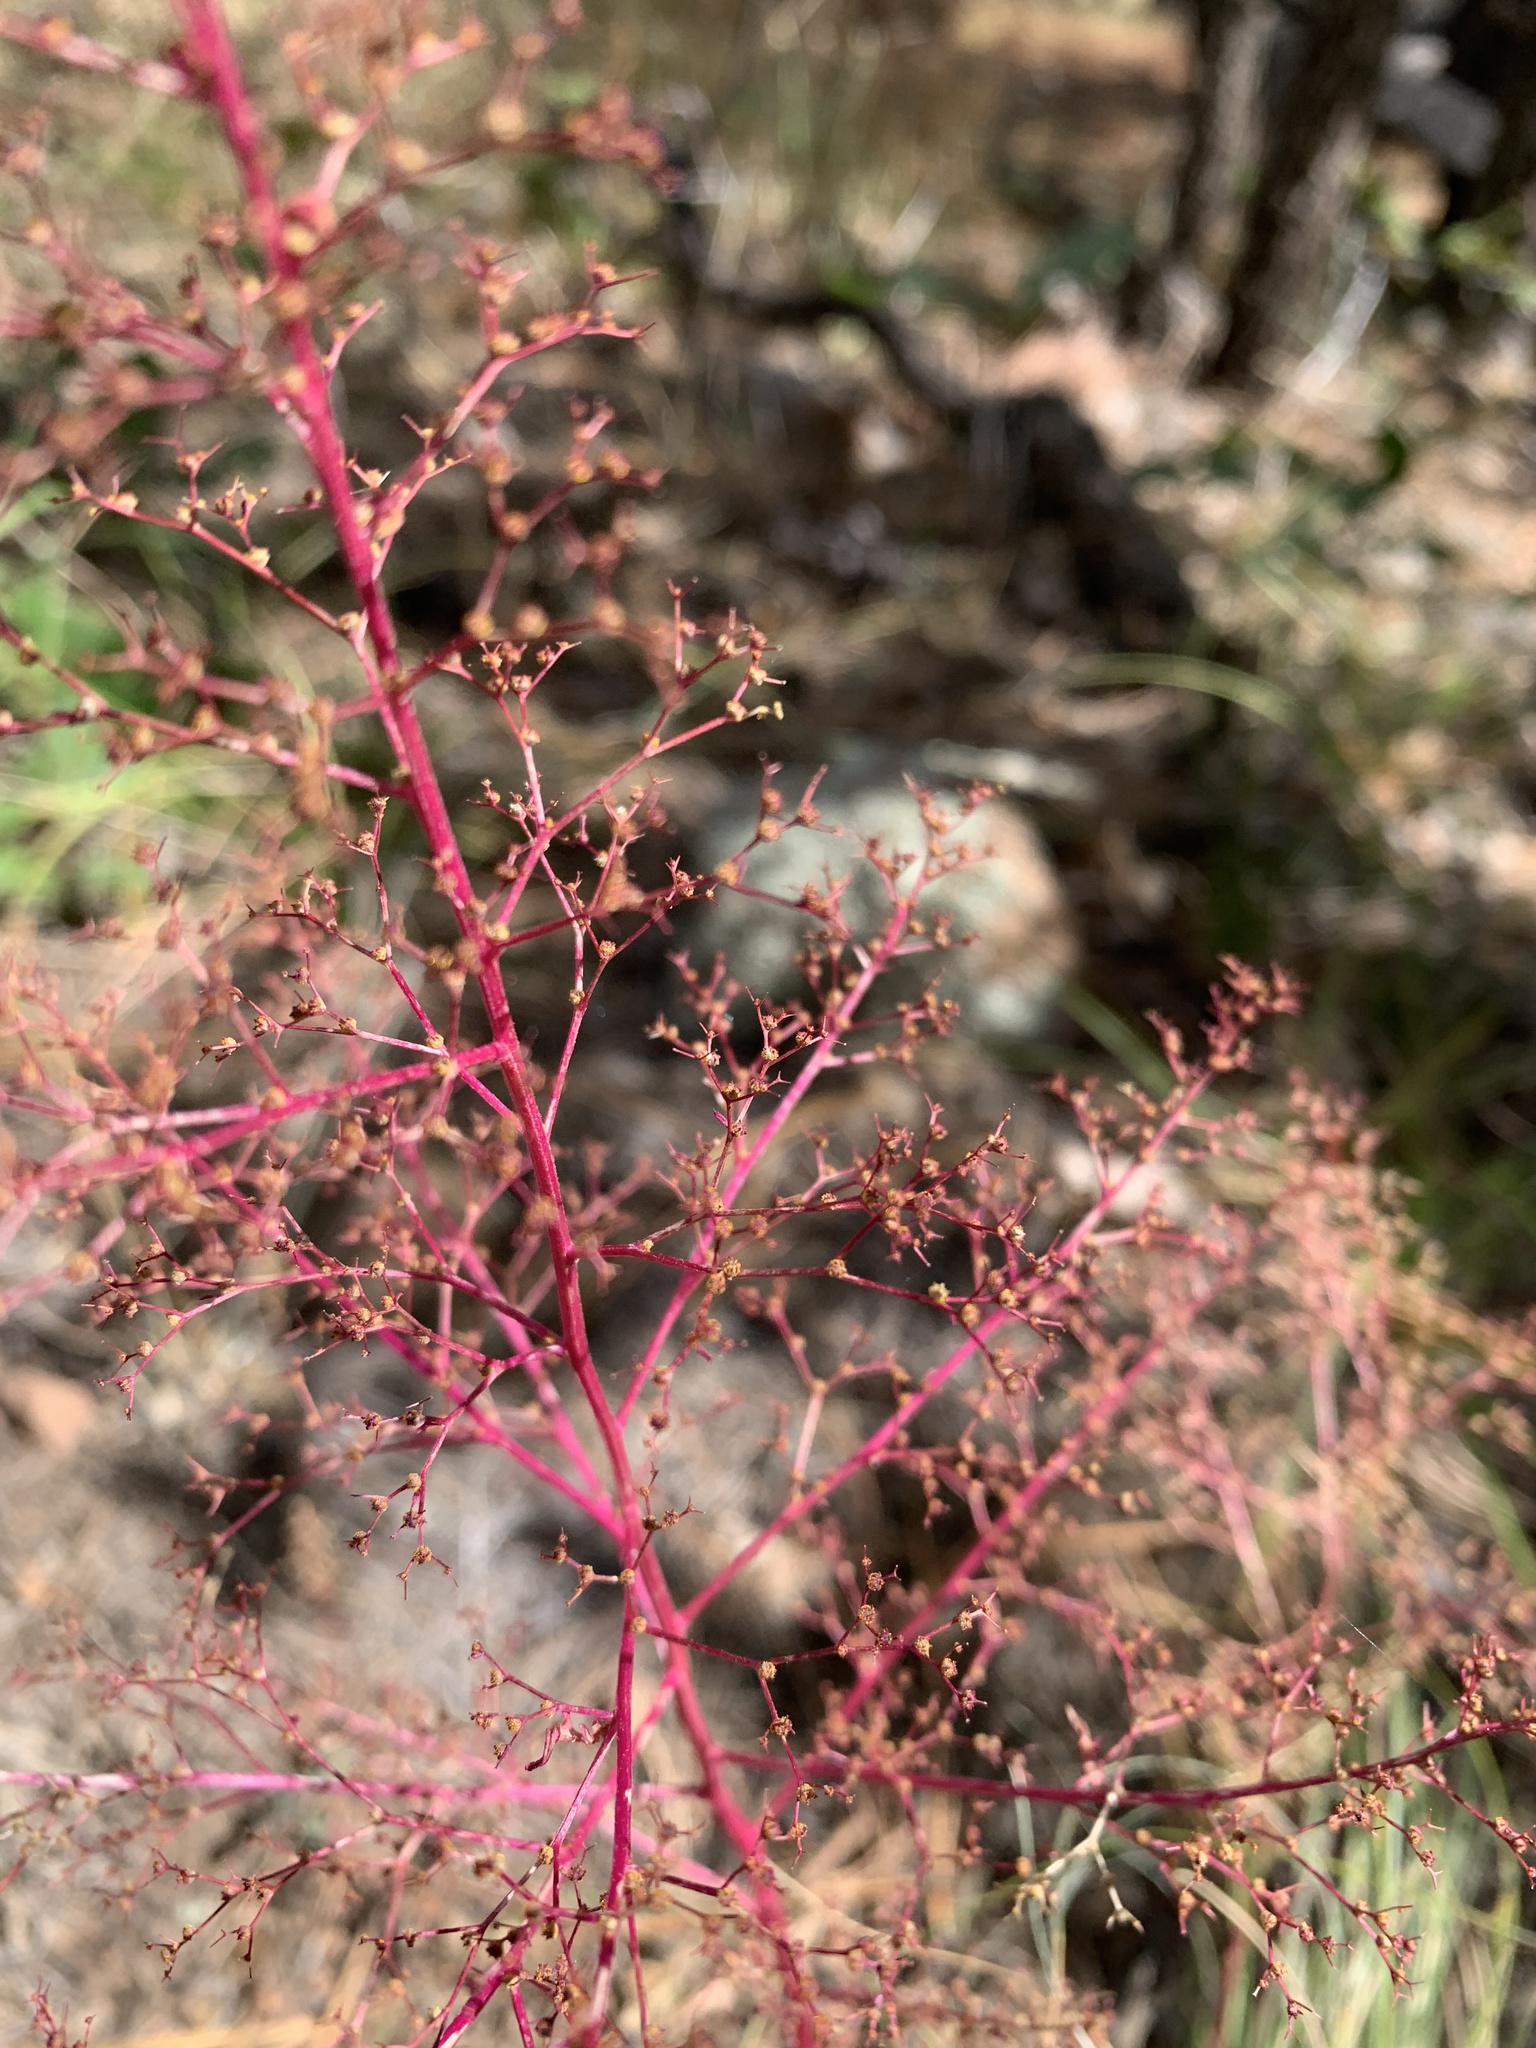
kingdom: Plantae
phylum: Tracheophyta
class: Magnoliopsida
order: Caryophyllales
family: Amaranthaceae
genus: Dysphania
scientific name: Dysphania incisa
